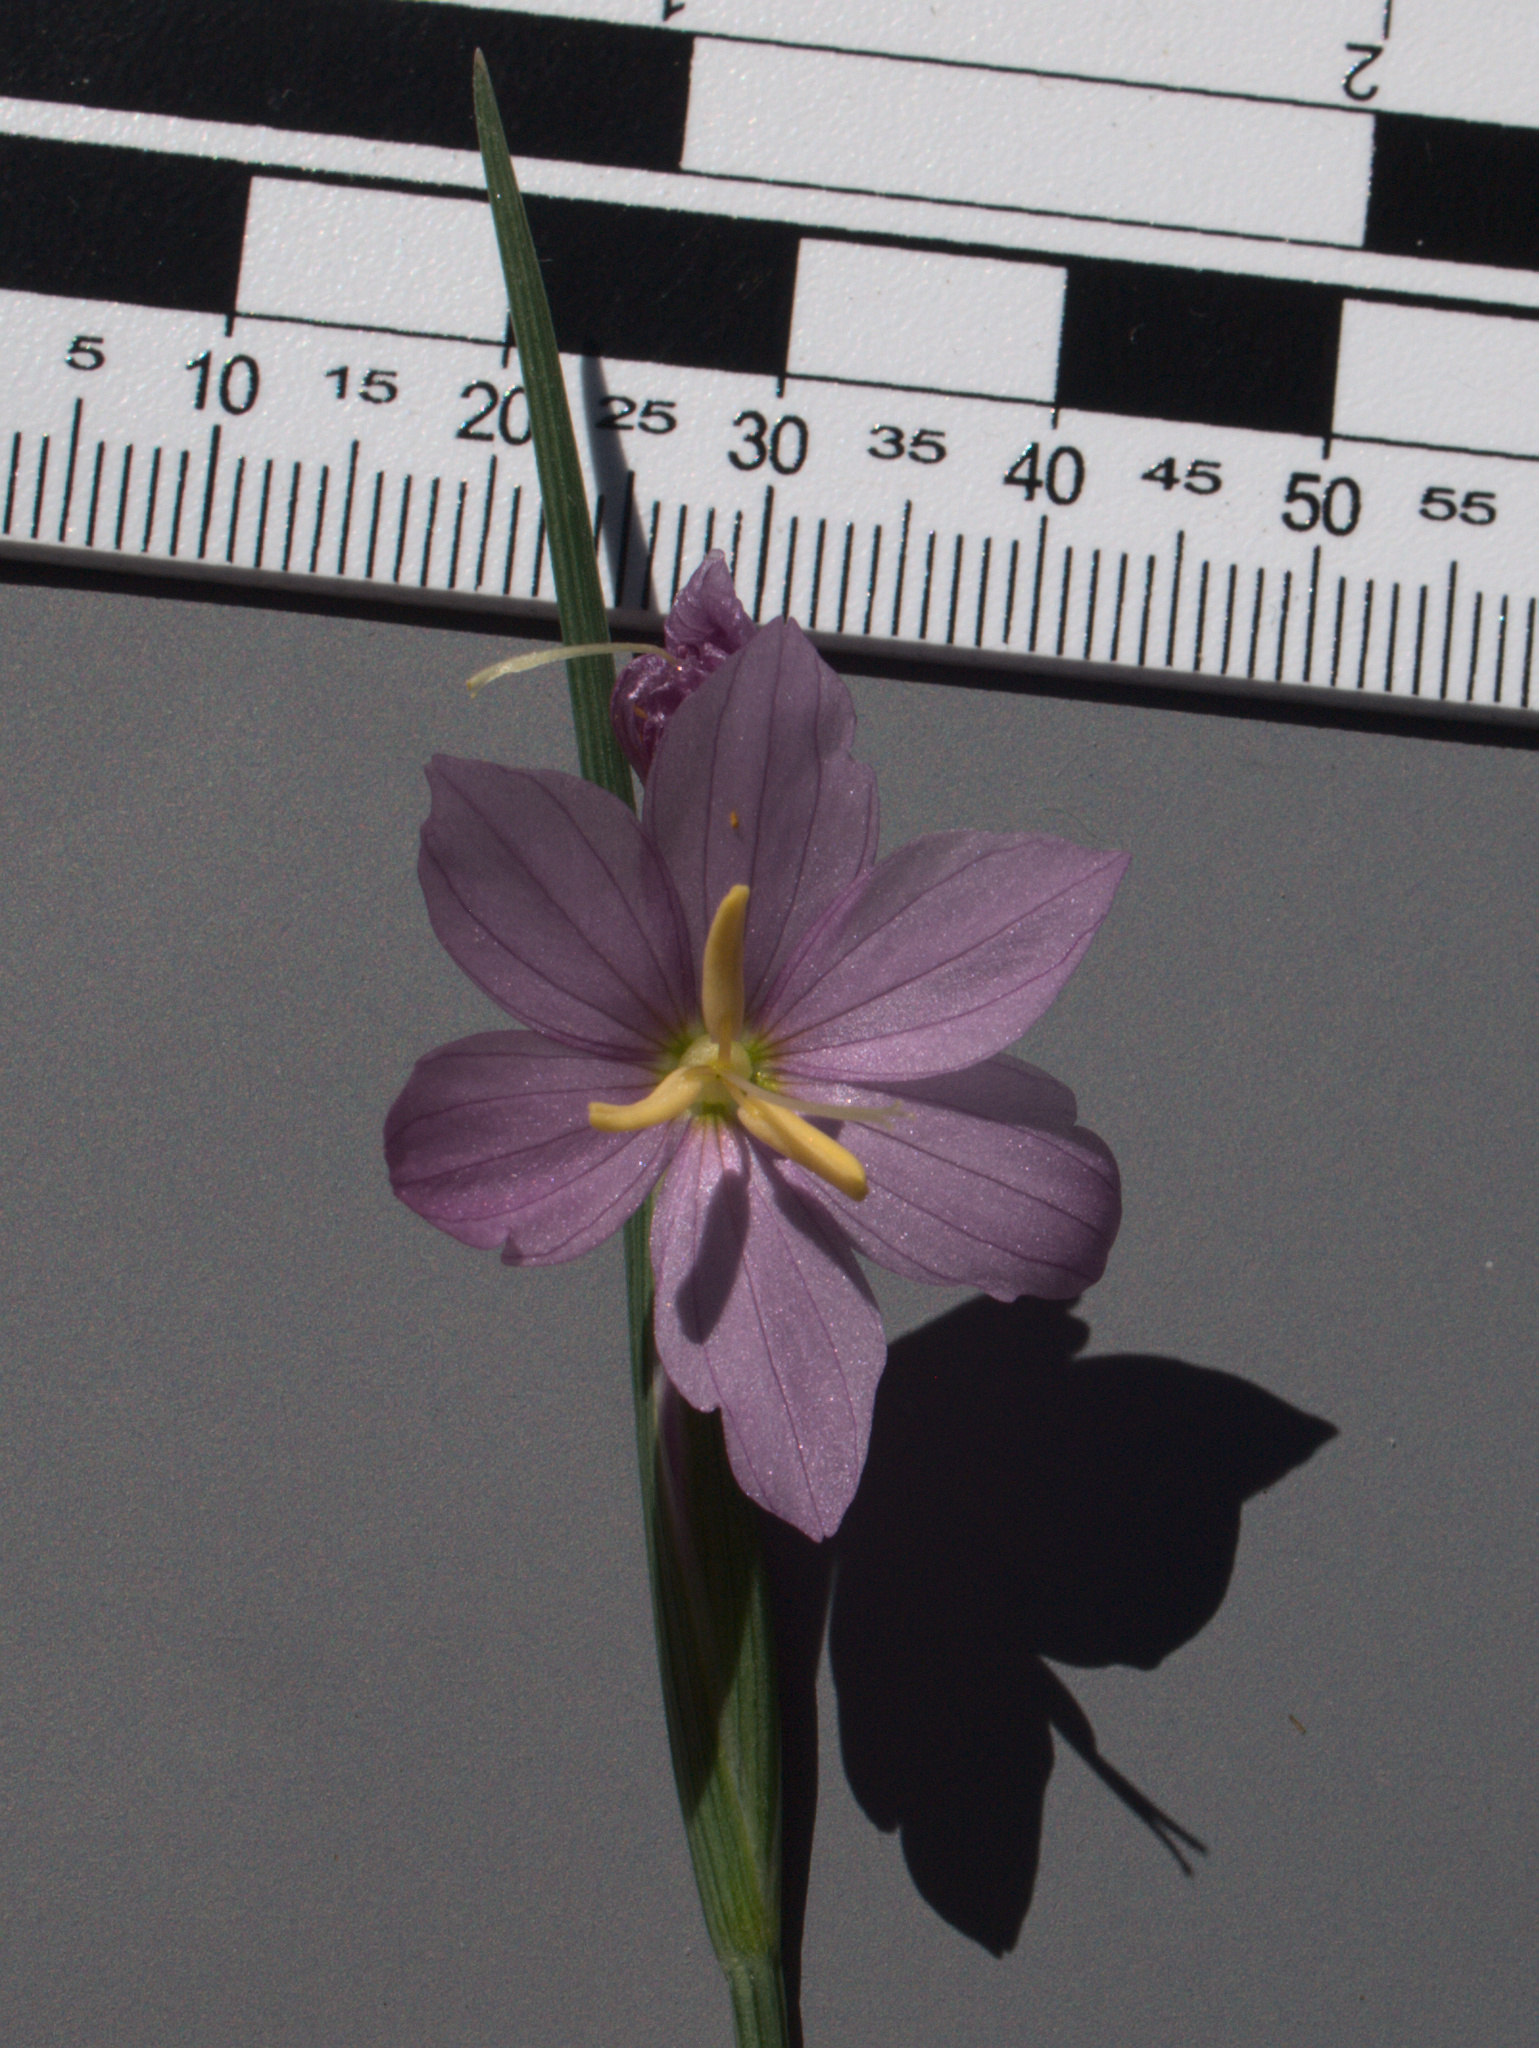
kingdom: Plantae
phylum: Tracheophyta
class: Liliopsida
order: Asparagales
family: Iridaceae
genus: Olsynium
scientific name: Olsynium douglasii
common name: Douglas' grasswidow
